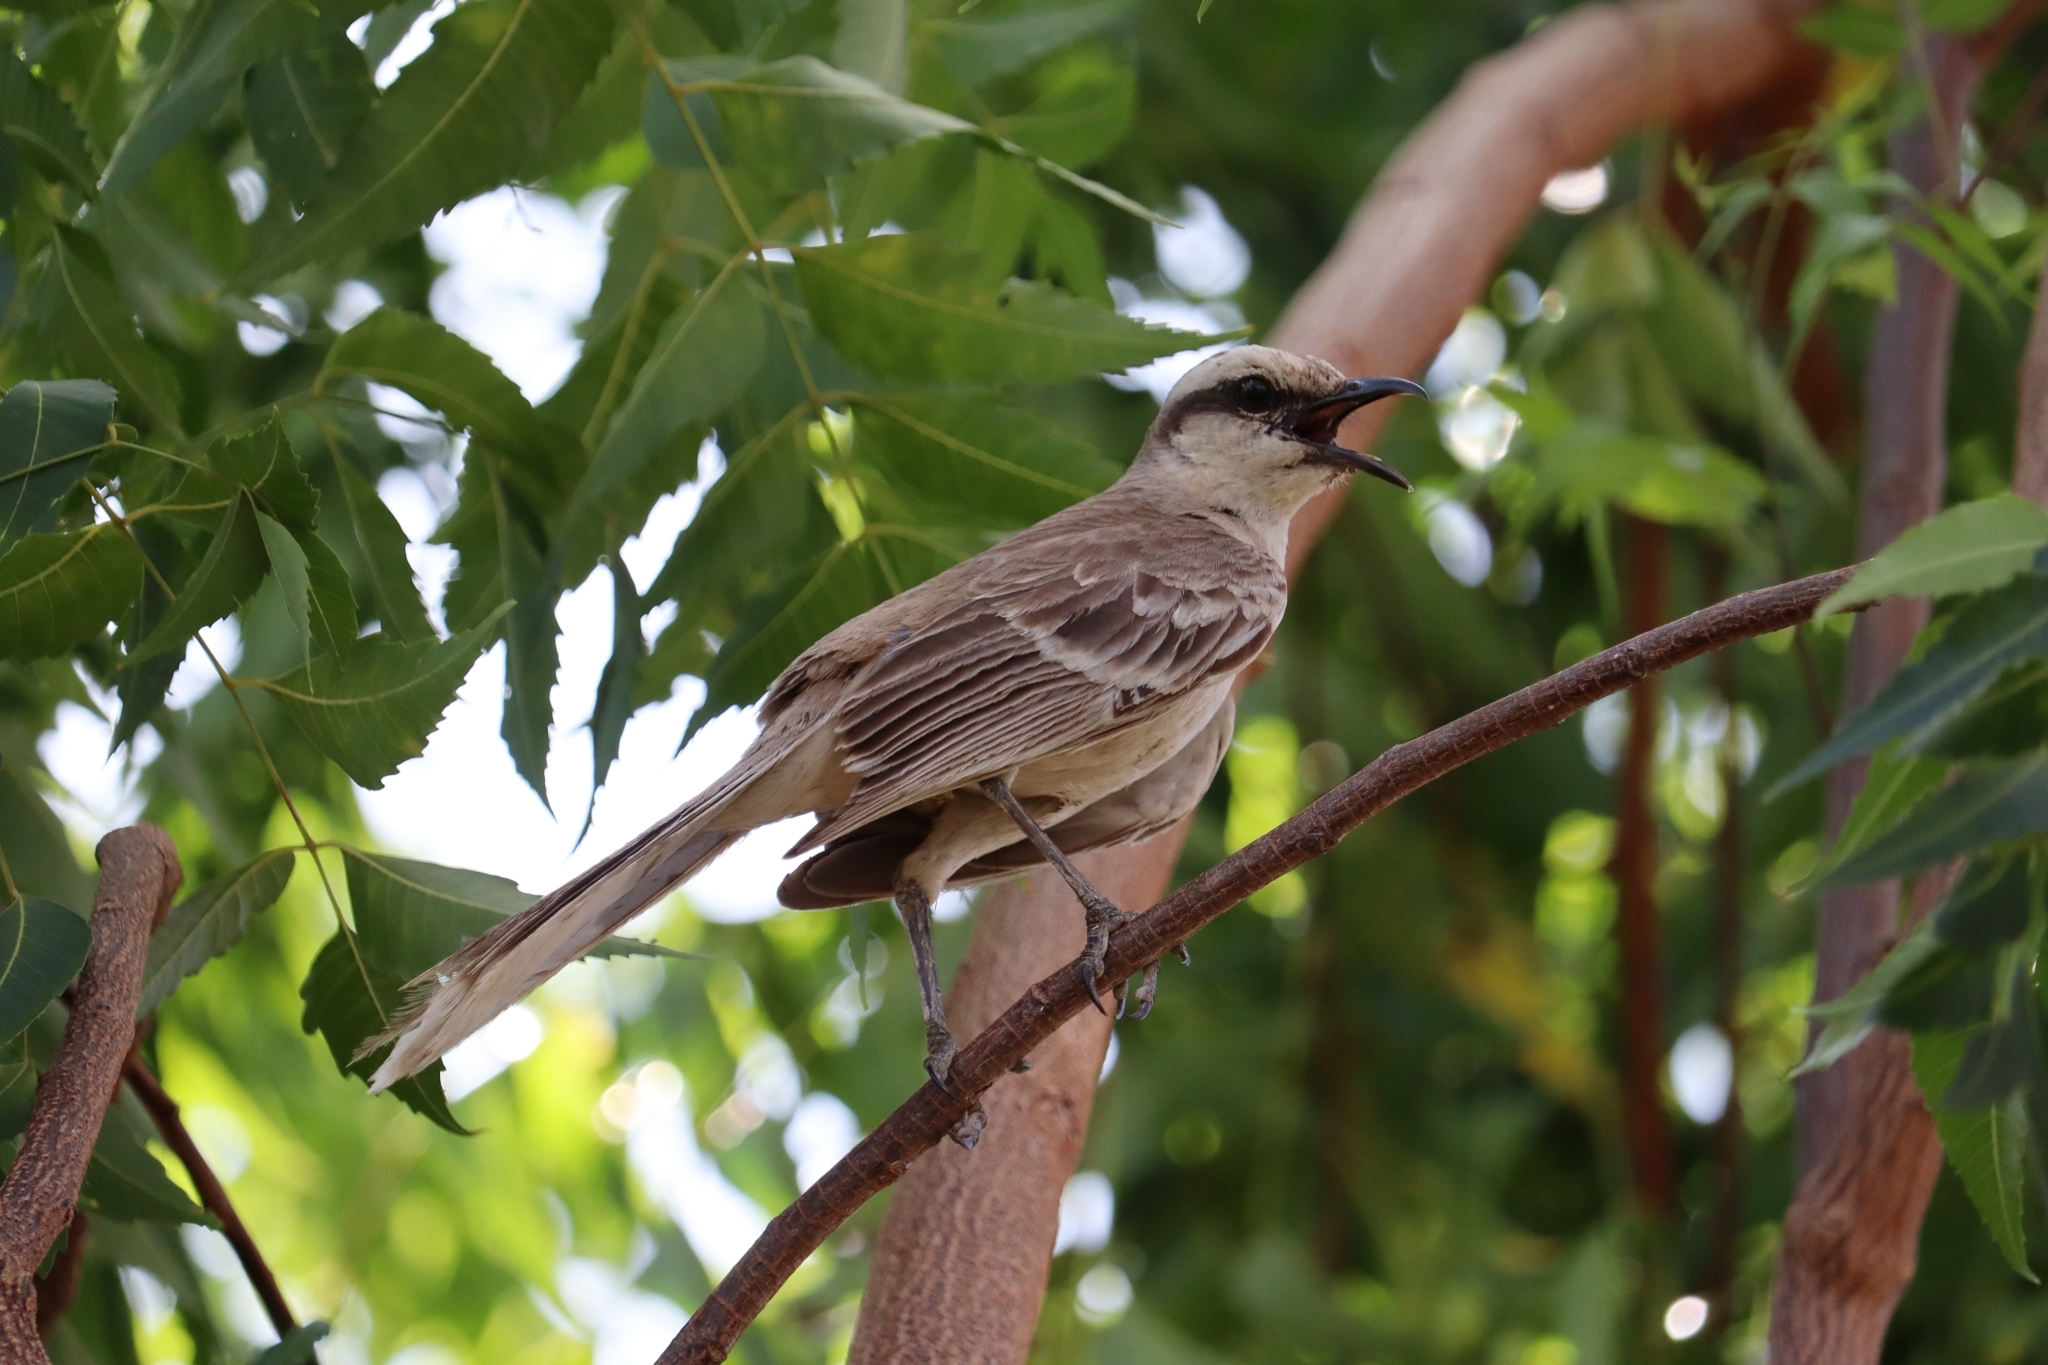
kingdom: Animalia
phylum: Chordata
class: Aves
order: Passeriformes
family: Mimidae
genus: Mimus
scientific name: Mimus saturninus
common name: Chalk-browed mockingbird
